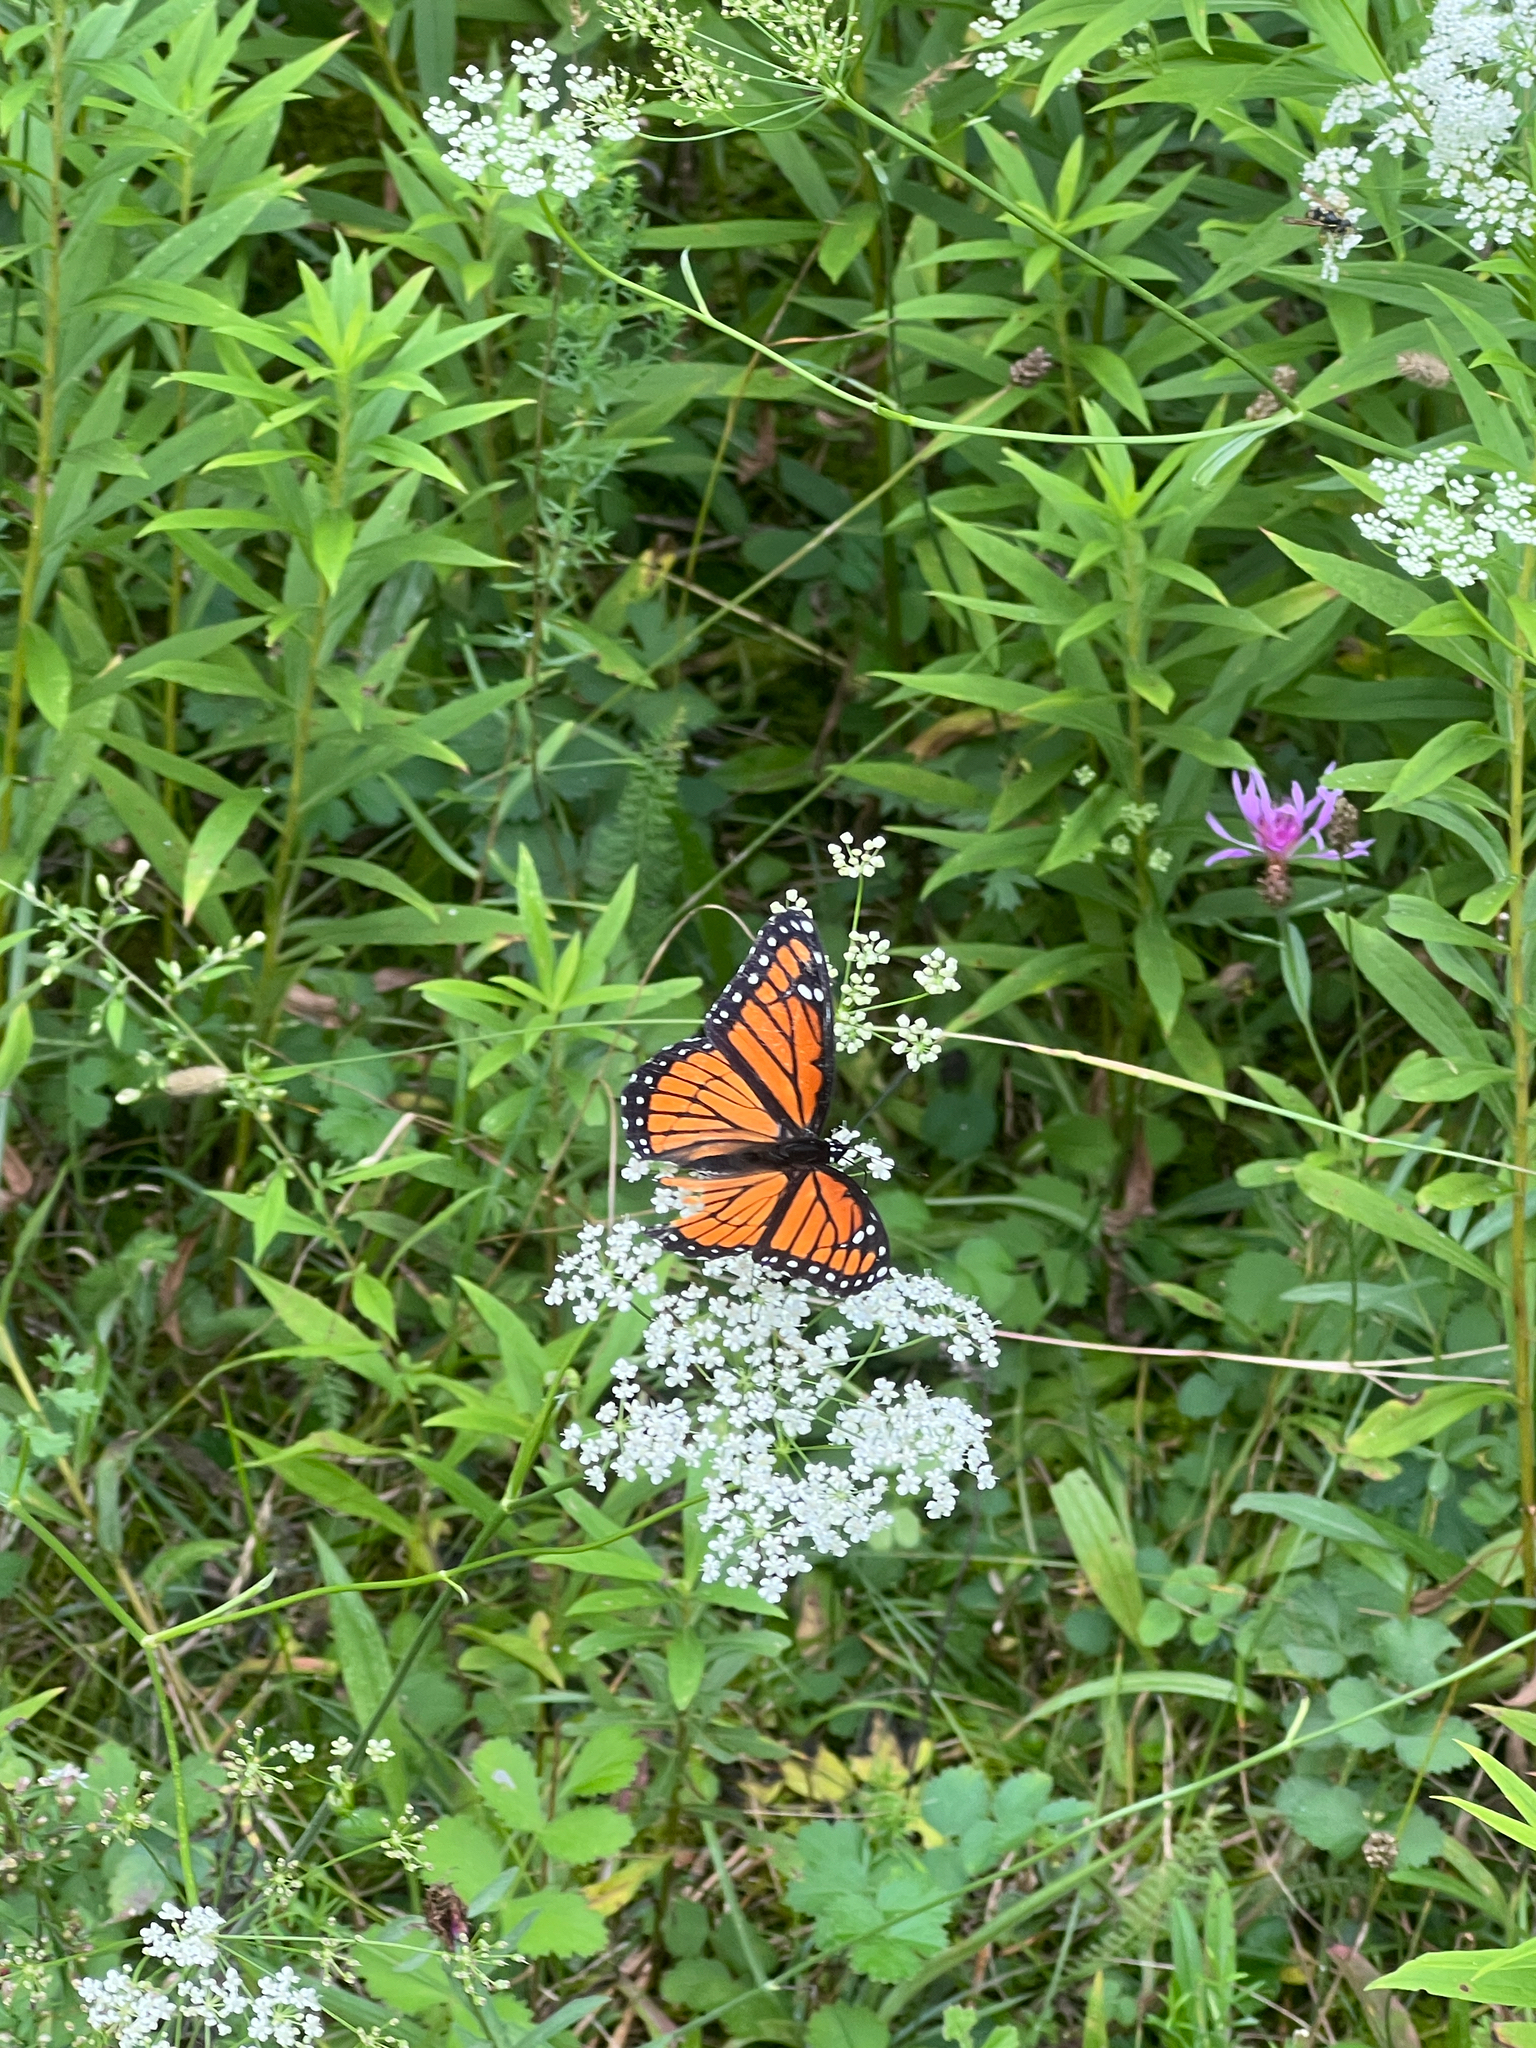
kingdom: Animalia
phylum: Arthropoda
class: Insecta
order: Lepidoptera
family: Nymphalidae
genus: Limenitis
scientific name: Limenitis archippus
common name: Viceroy
